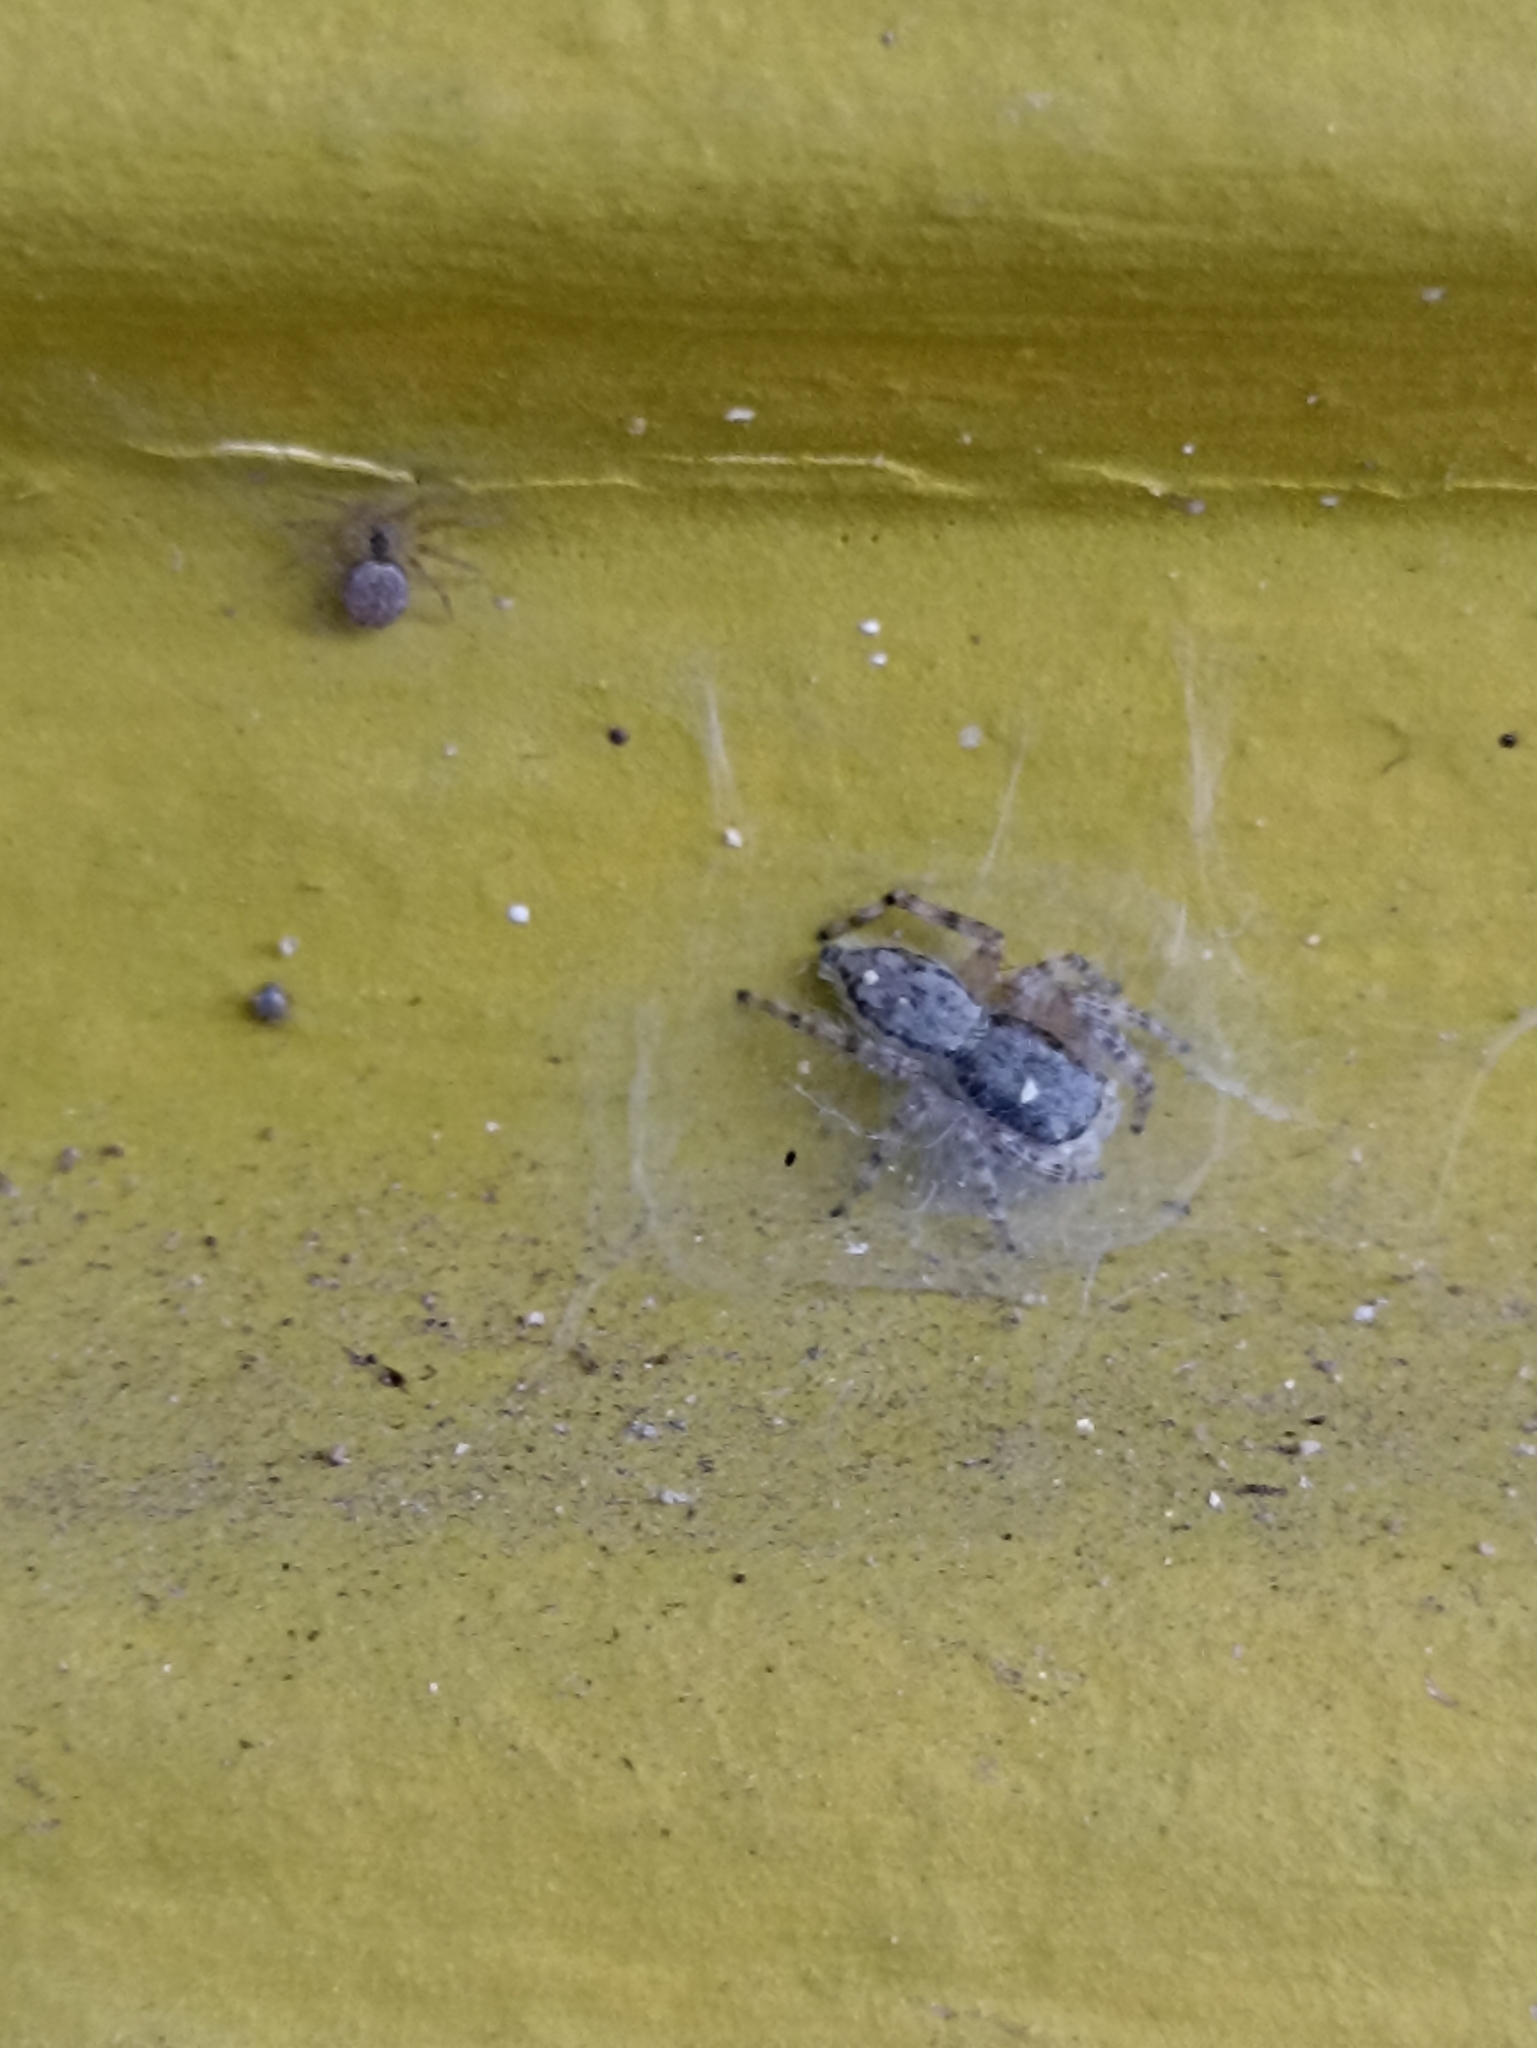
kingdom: Animalia
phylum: Arthropoda
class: Arachnida
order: Araneae
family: Salticidae
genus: Menemerus
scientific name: Menemerus bivittatus
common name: Gray wall jumper
